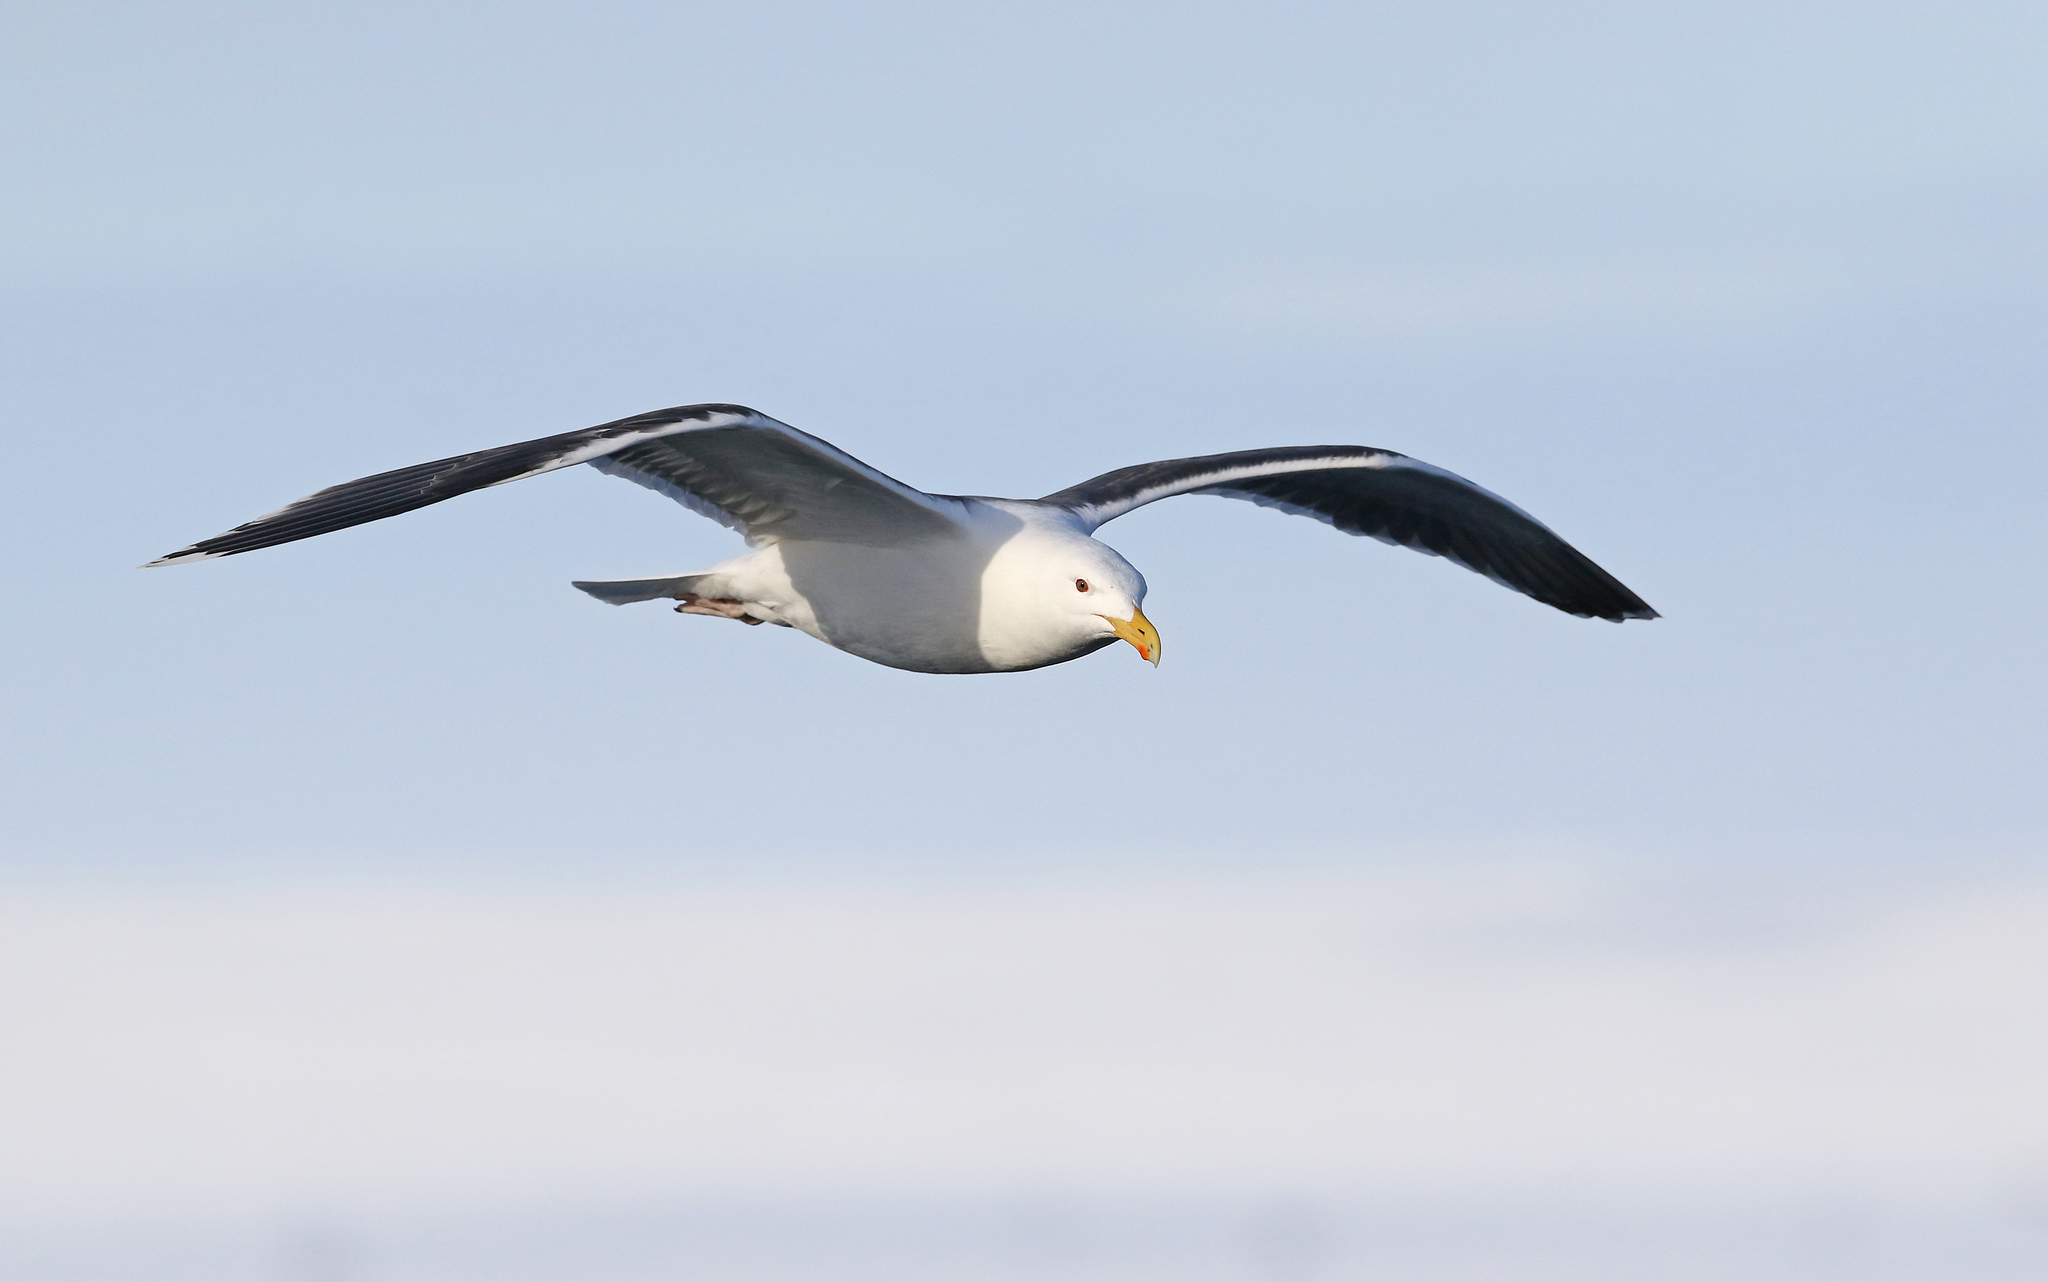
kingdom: Animalia
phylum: Chordata
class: Aves
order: Charadriiformes
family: Laridae
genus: Larus
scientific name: Larus marinus
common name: Great black-backed gull
